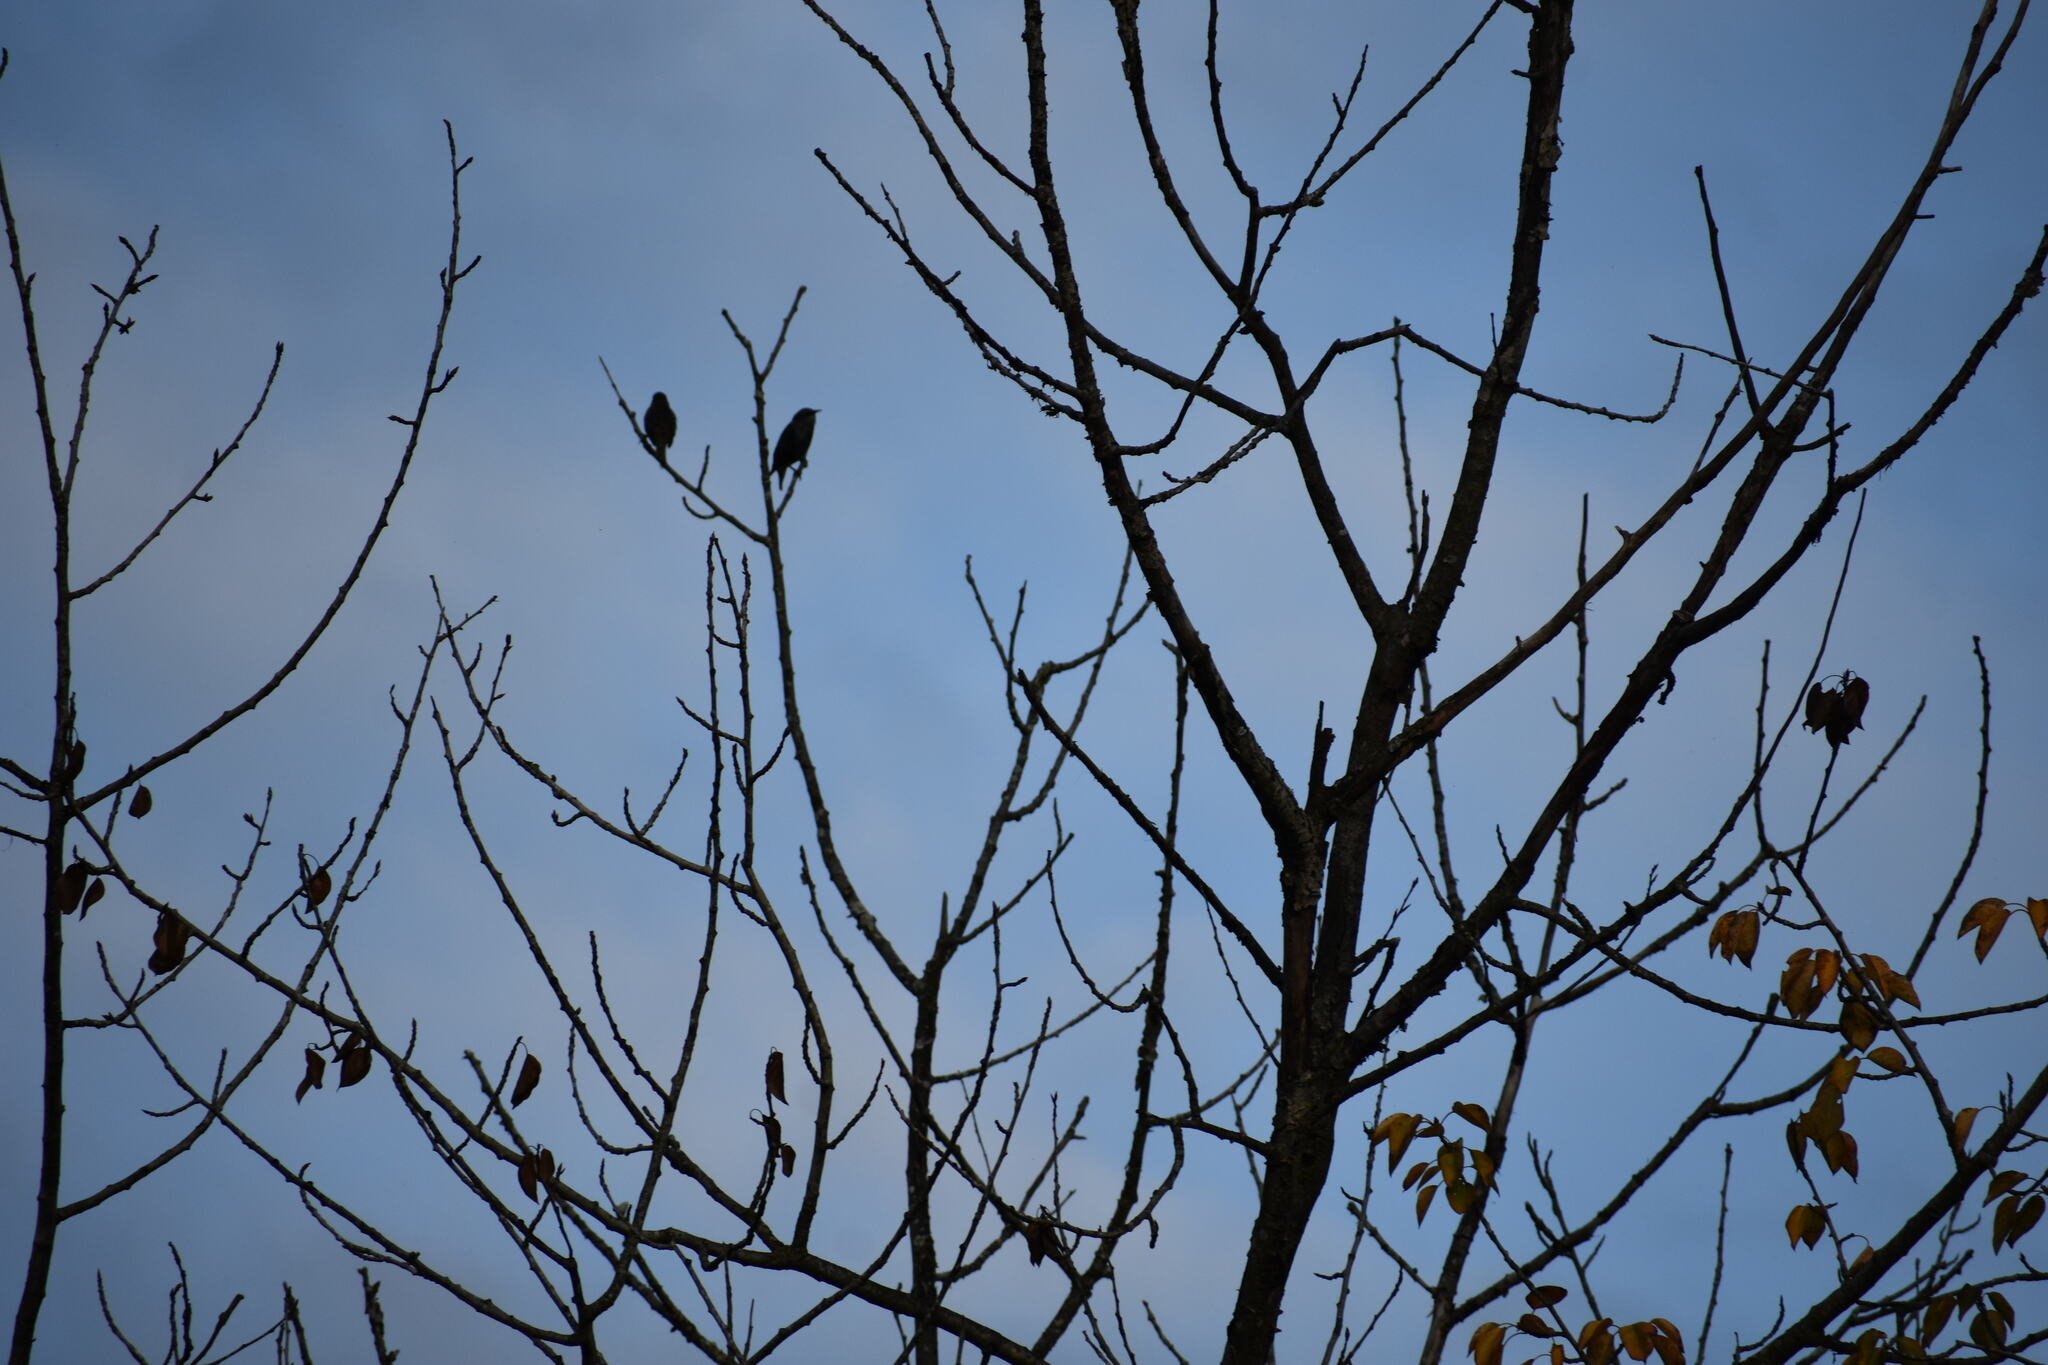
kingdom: Animalia
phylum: Chordata
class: Aves
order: Passeriformes
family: Sturnidae
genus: Sturnus
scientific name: Sturnus vulgaris
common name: Common starling
